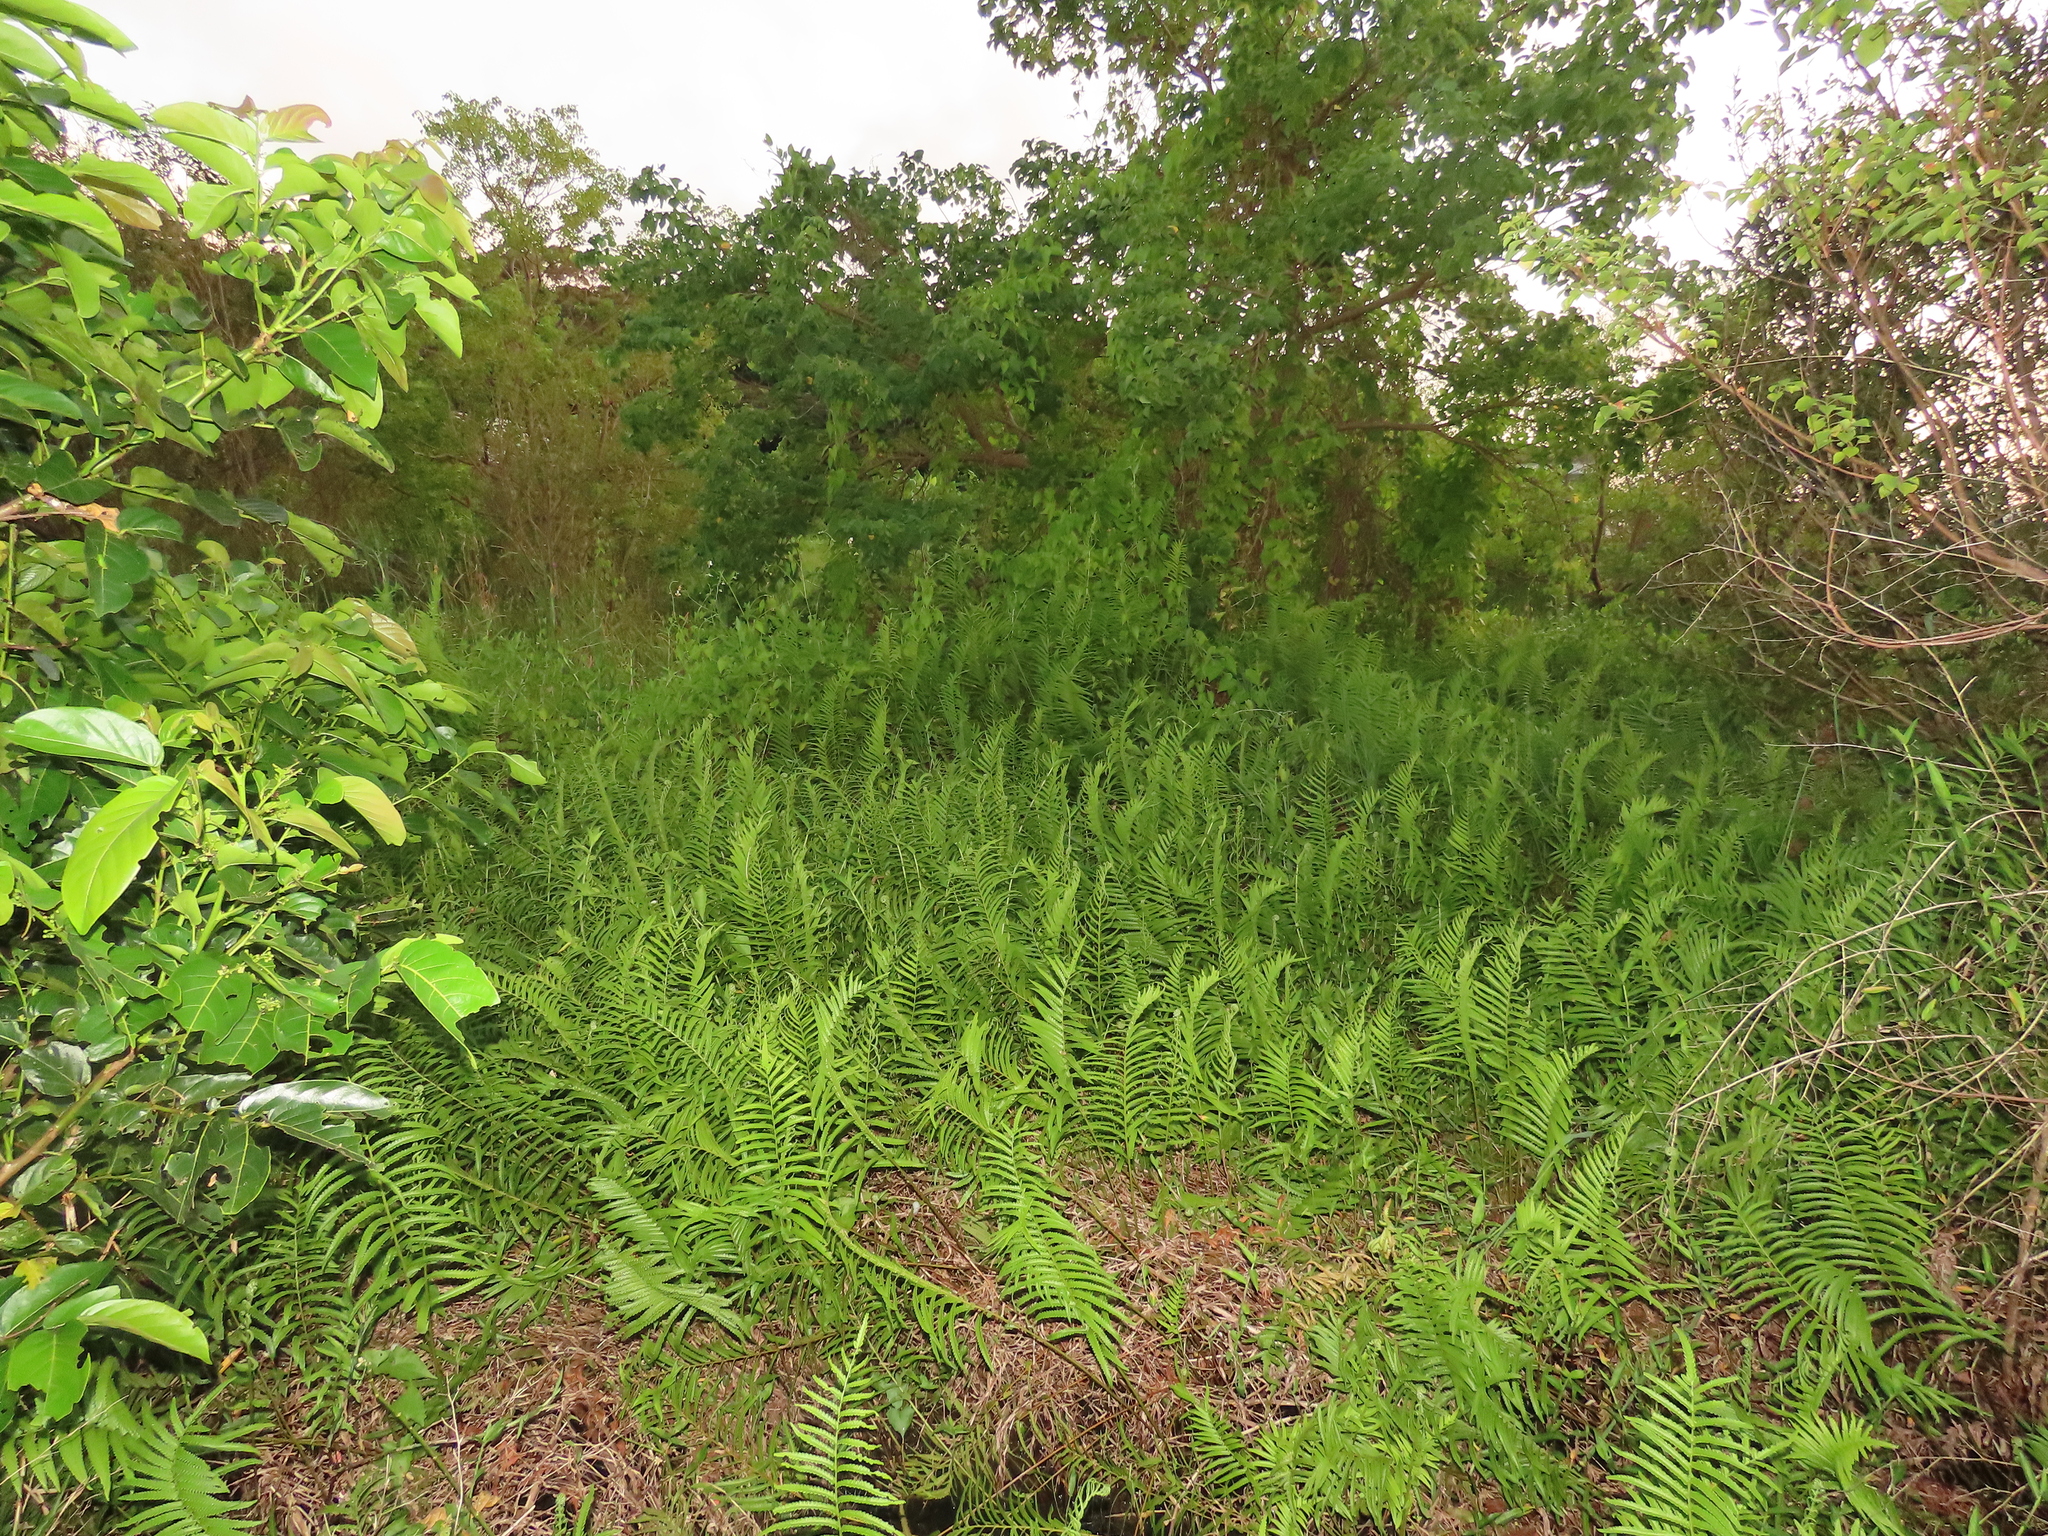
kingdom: Plantae
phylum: Tracheophyta
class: Polypodiopsida
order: Polypodiales
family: Thelypteridaceae
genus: Cyclosorus
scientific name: Cyclosorus interruptus
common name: Neke fern
